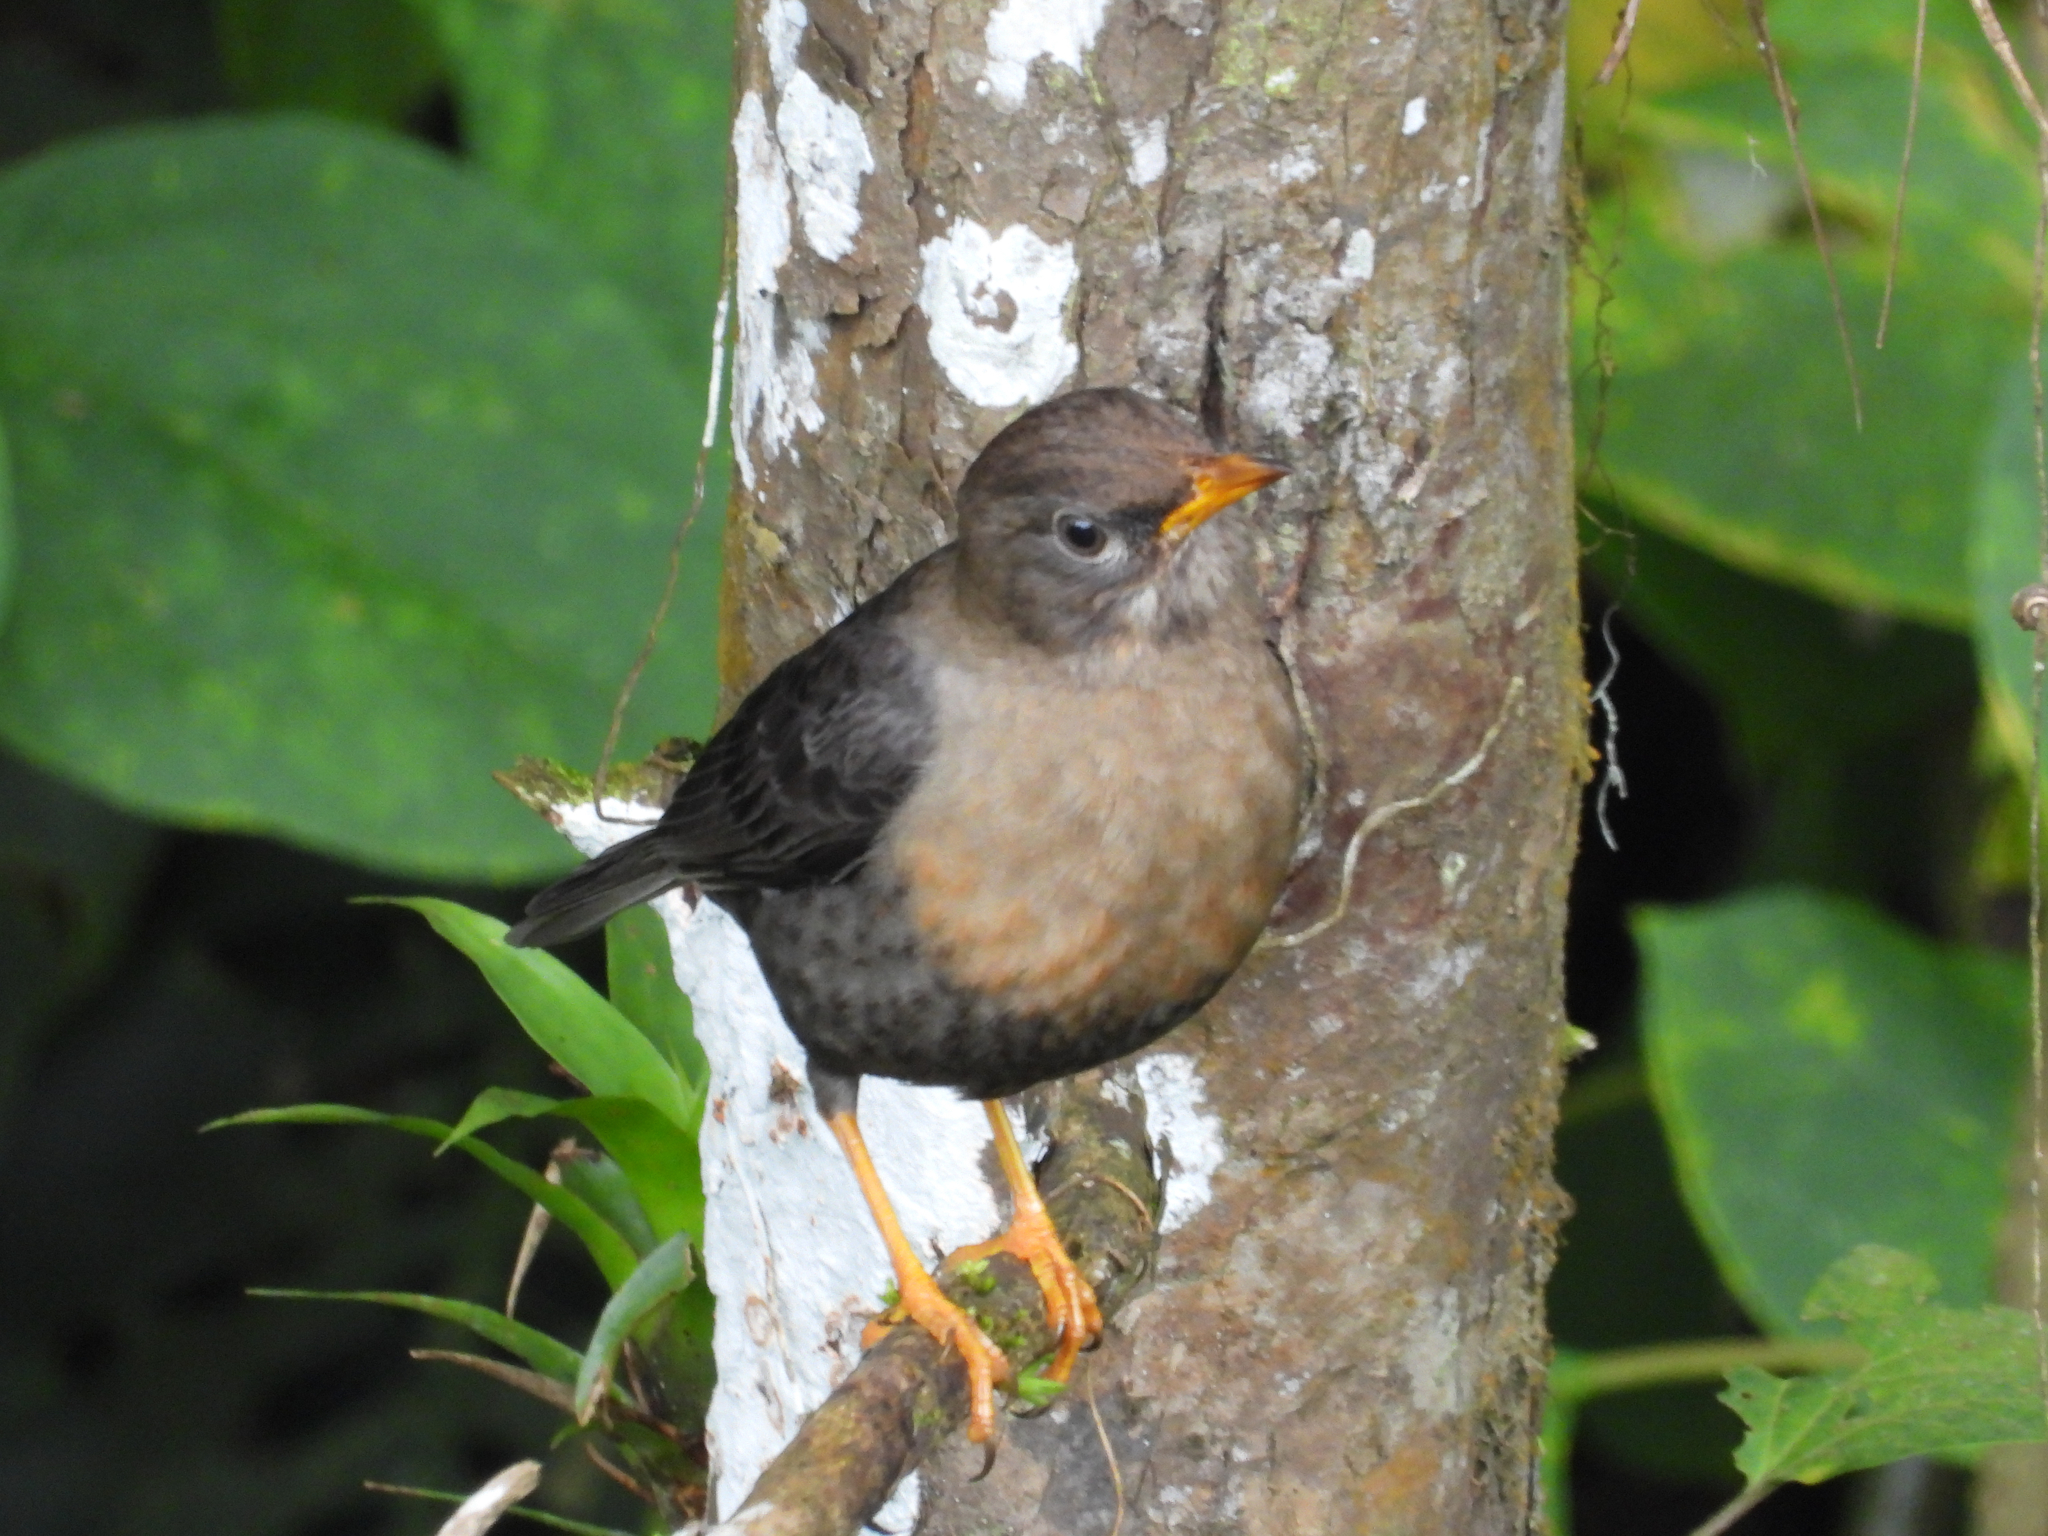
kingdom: Animalia
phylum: Chordata
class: Aves
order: Passeriformes
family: Turdidae
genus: Turdus
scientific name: Turdus rufitorques
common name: Rufous-collared thrush
